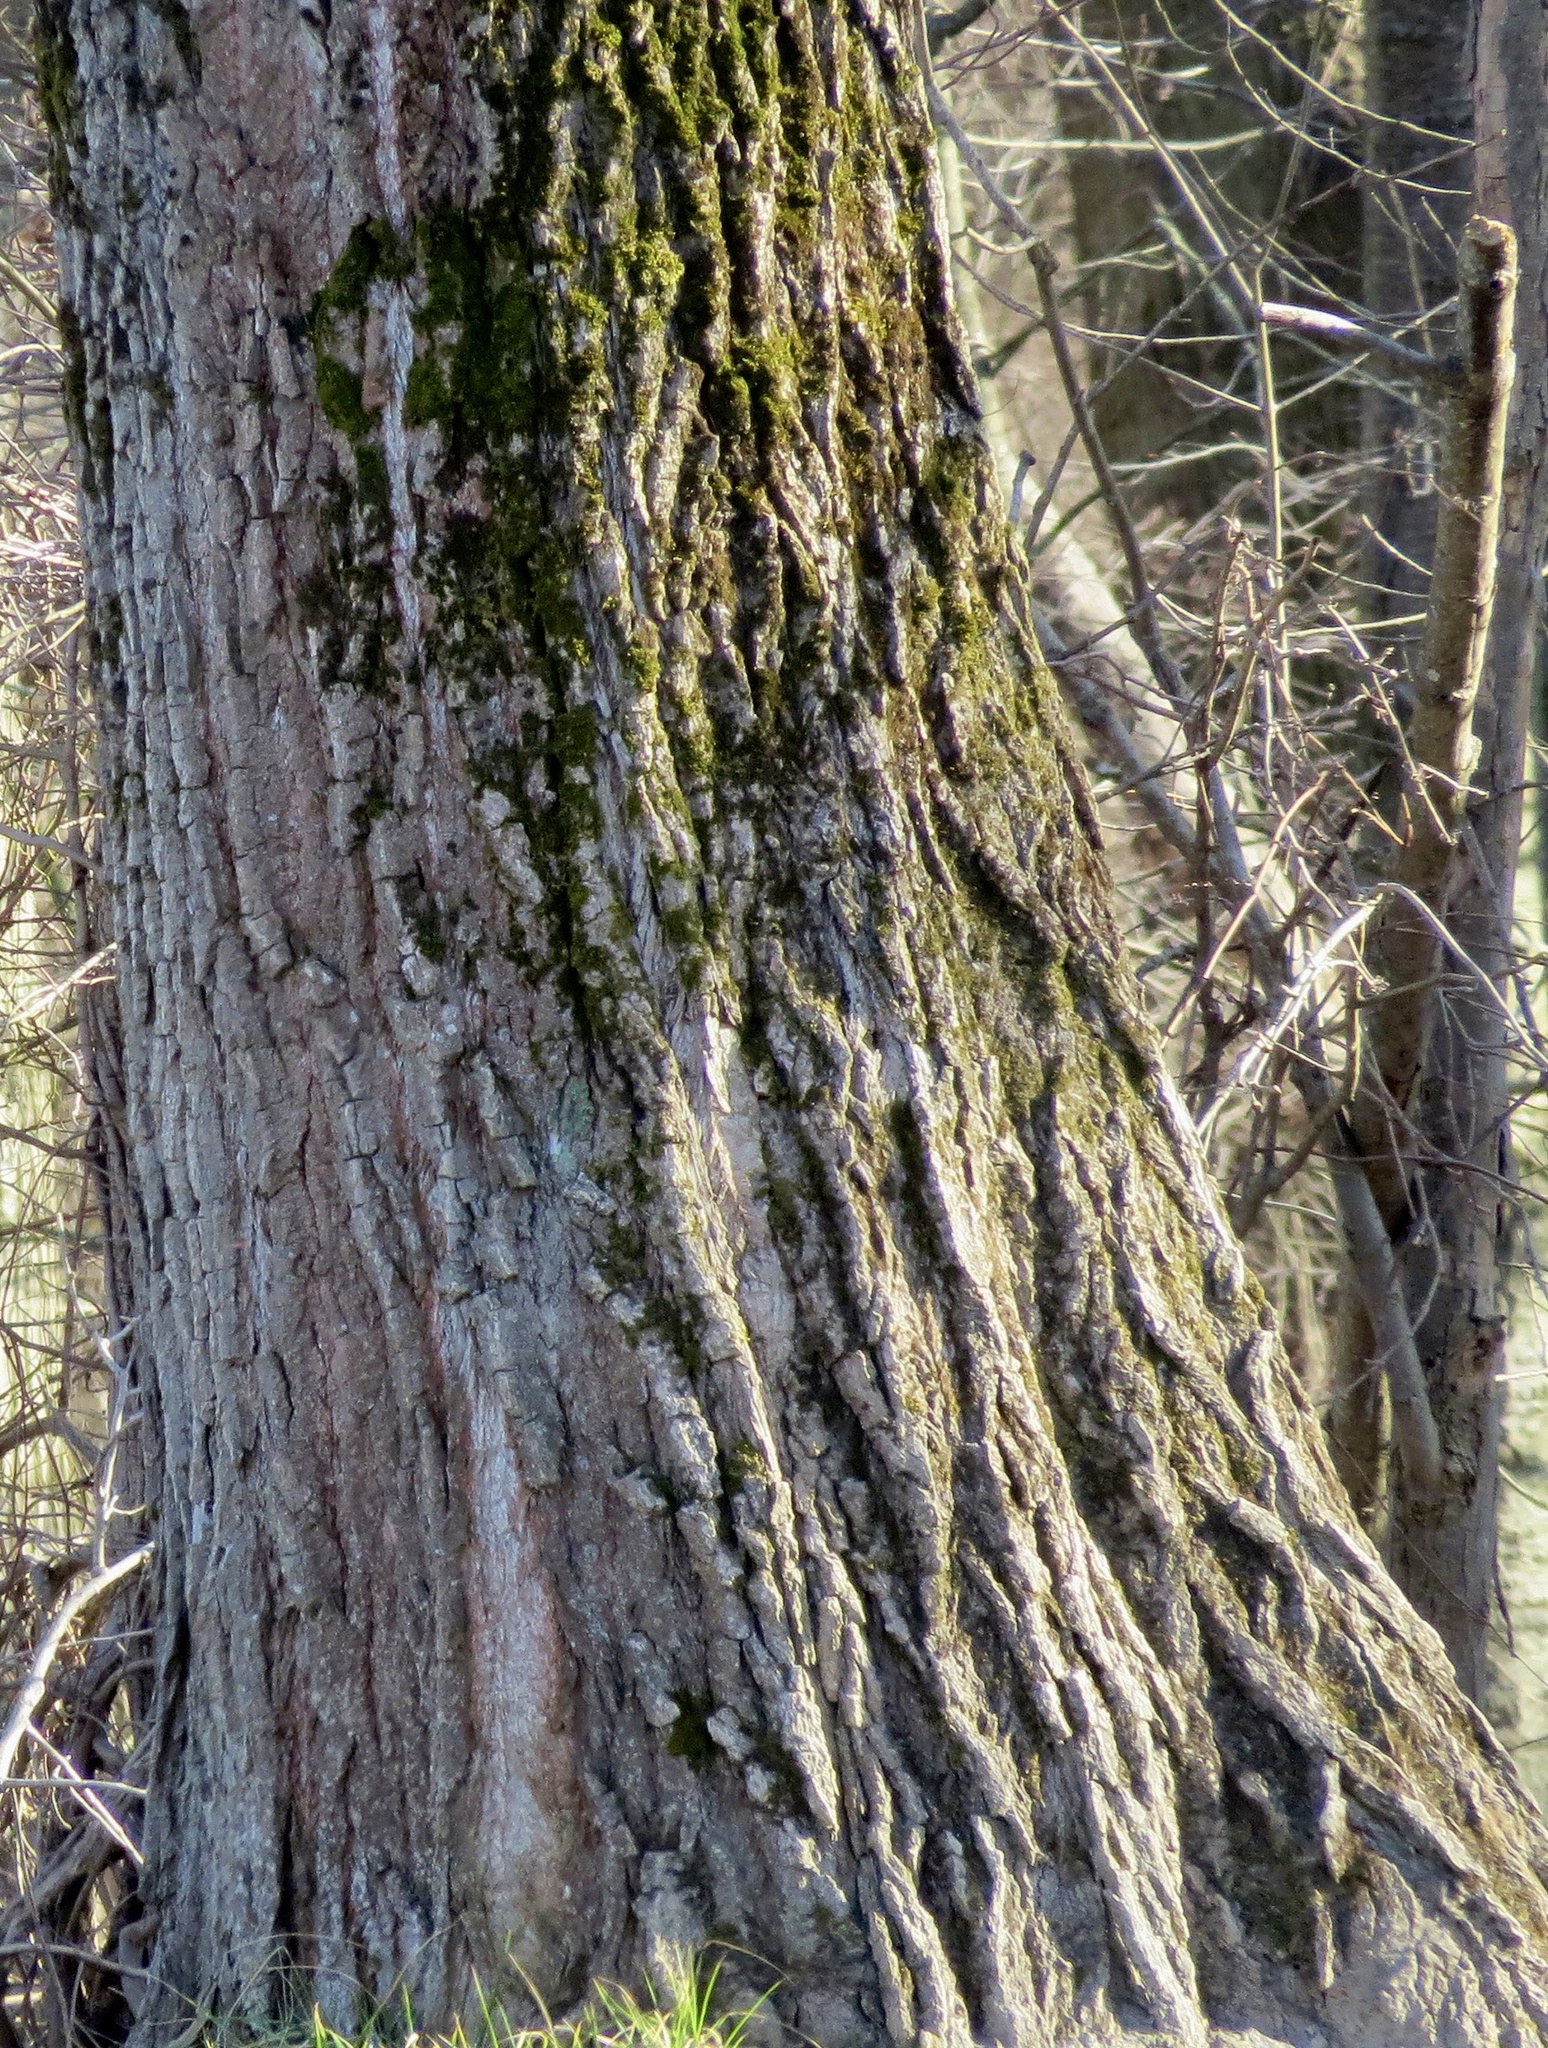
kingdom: Plantae
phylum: Tracheophyta
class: Magnoliopsida
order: Malpighiales
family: Salicaceae
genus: Populus
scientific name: Populus deltoides
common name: Eastern cottonwood
